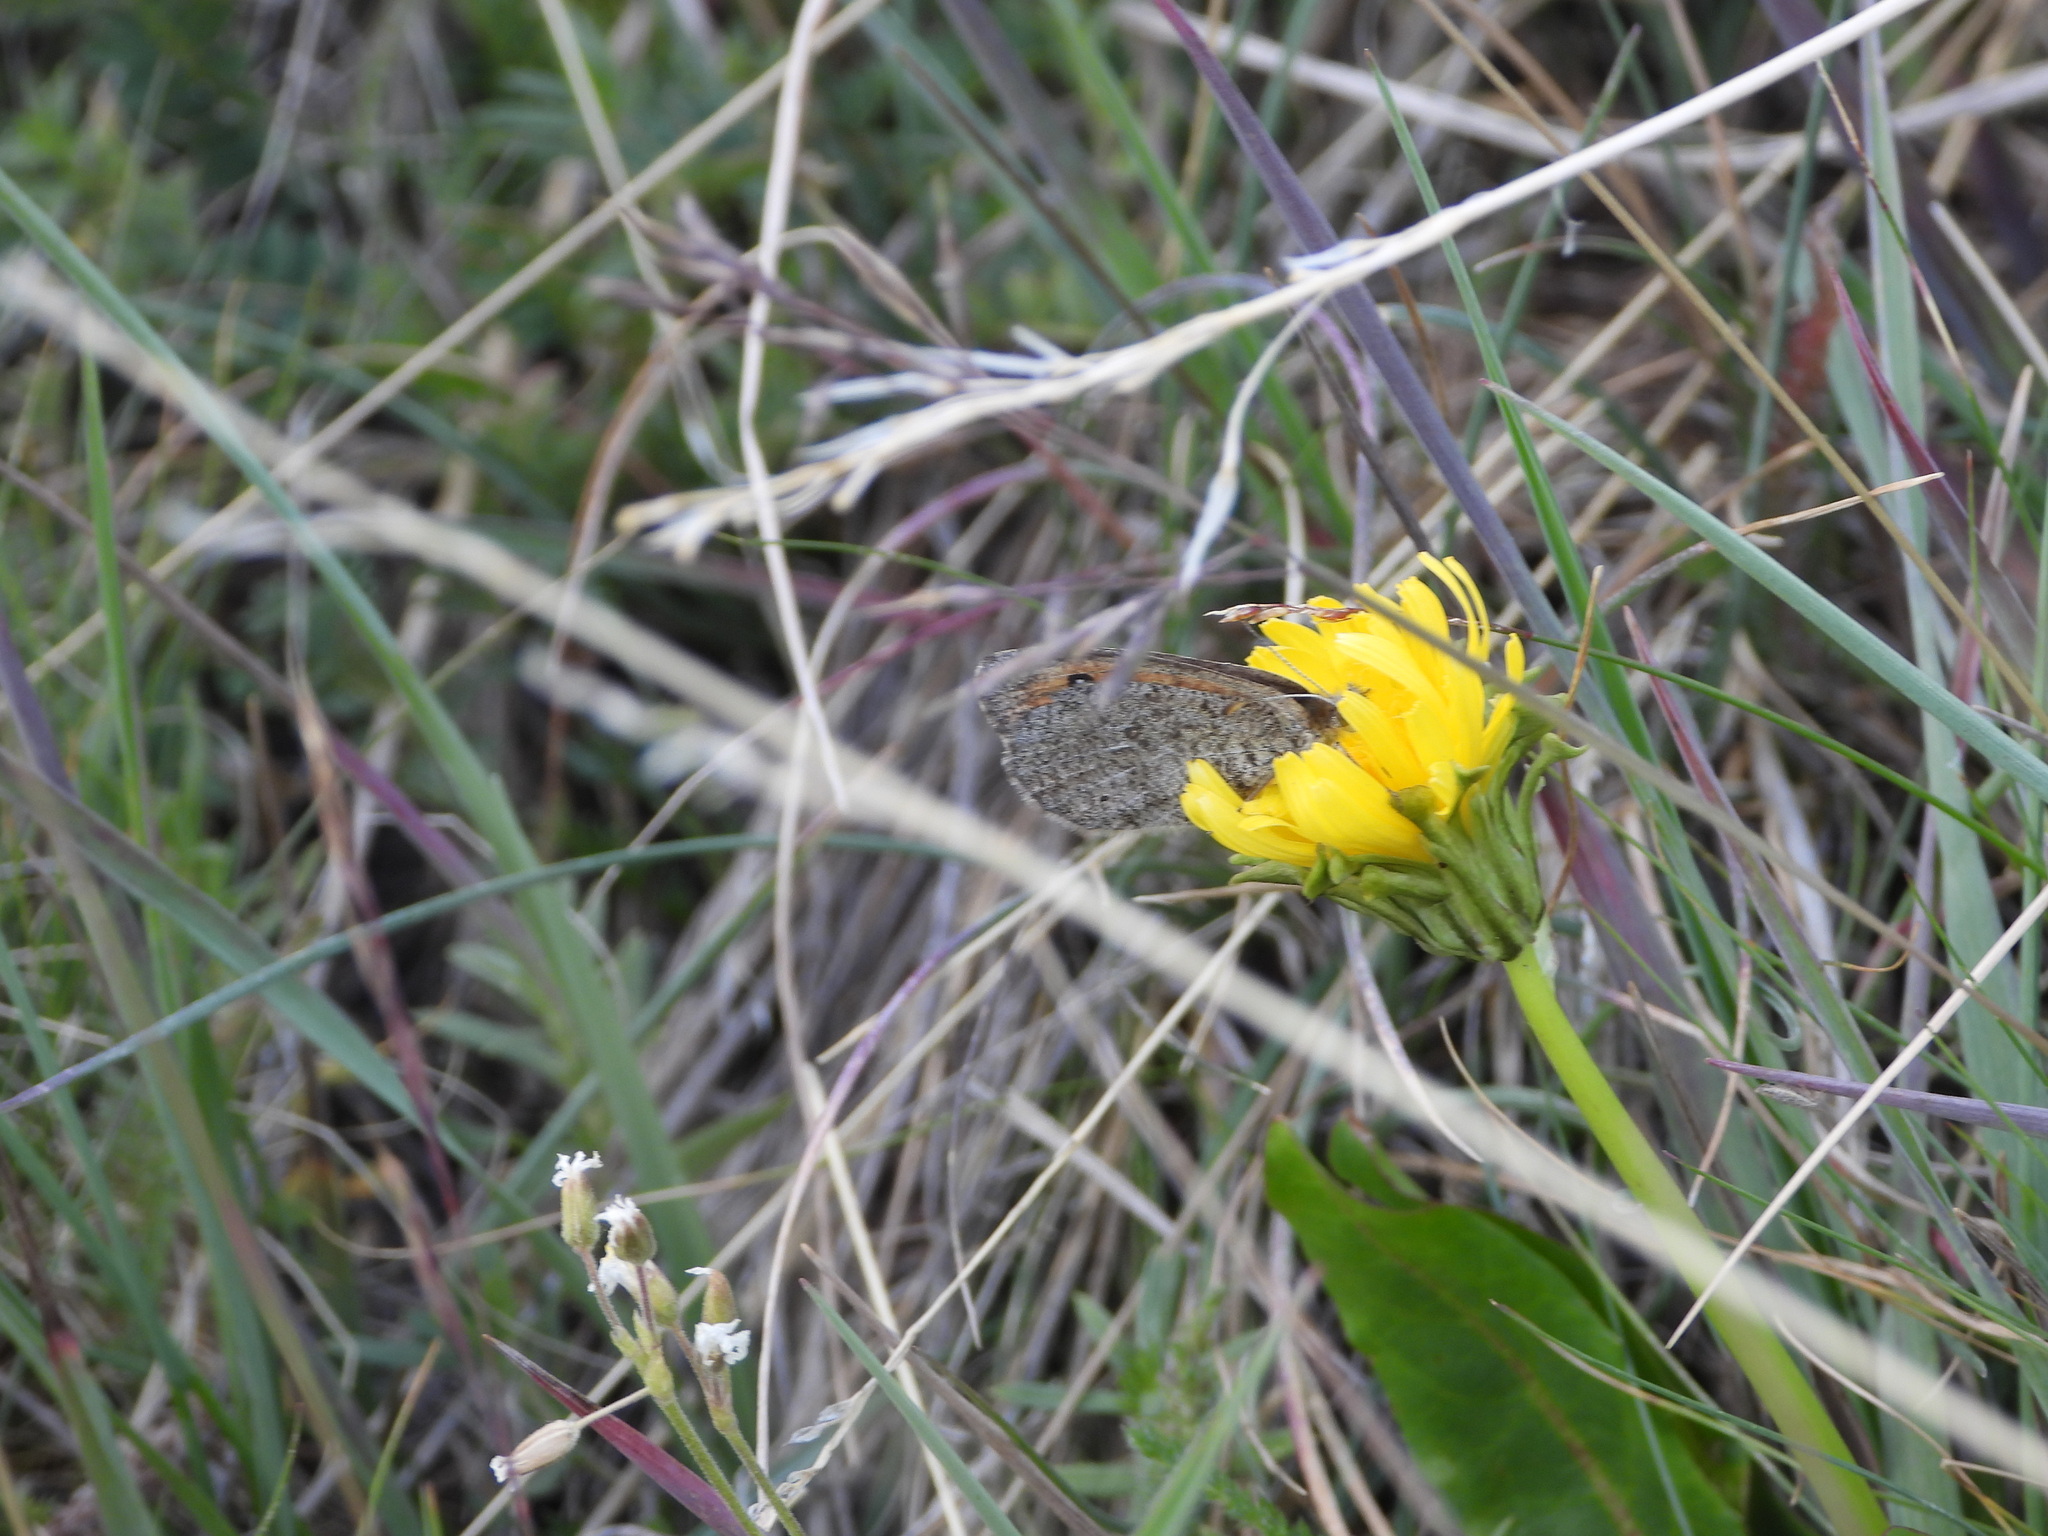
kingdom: Animalia
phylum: Arthropoda
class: Insecta
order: Lepidoptera
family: Nymphalidae
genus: Erebia
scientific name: Erebia tyndarus
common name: Swiss brassy ringlet
